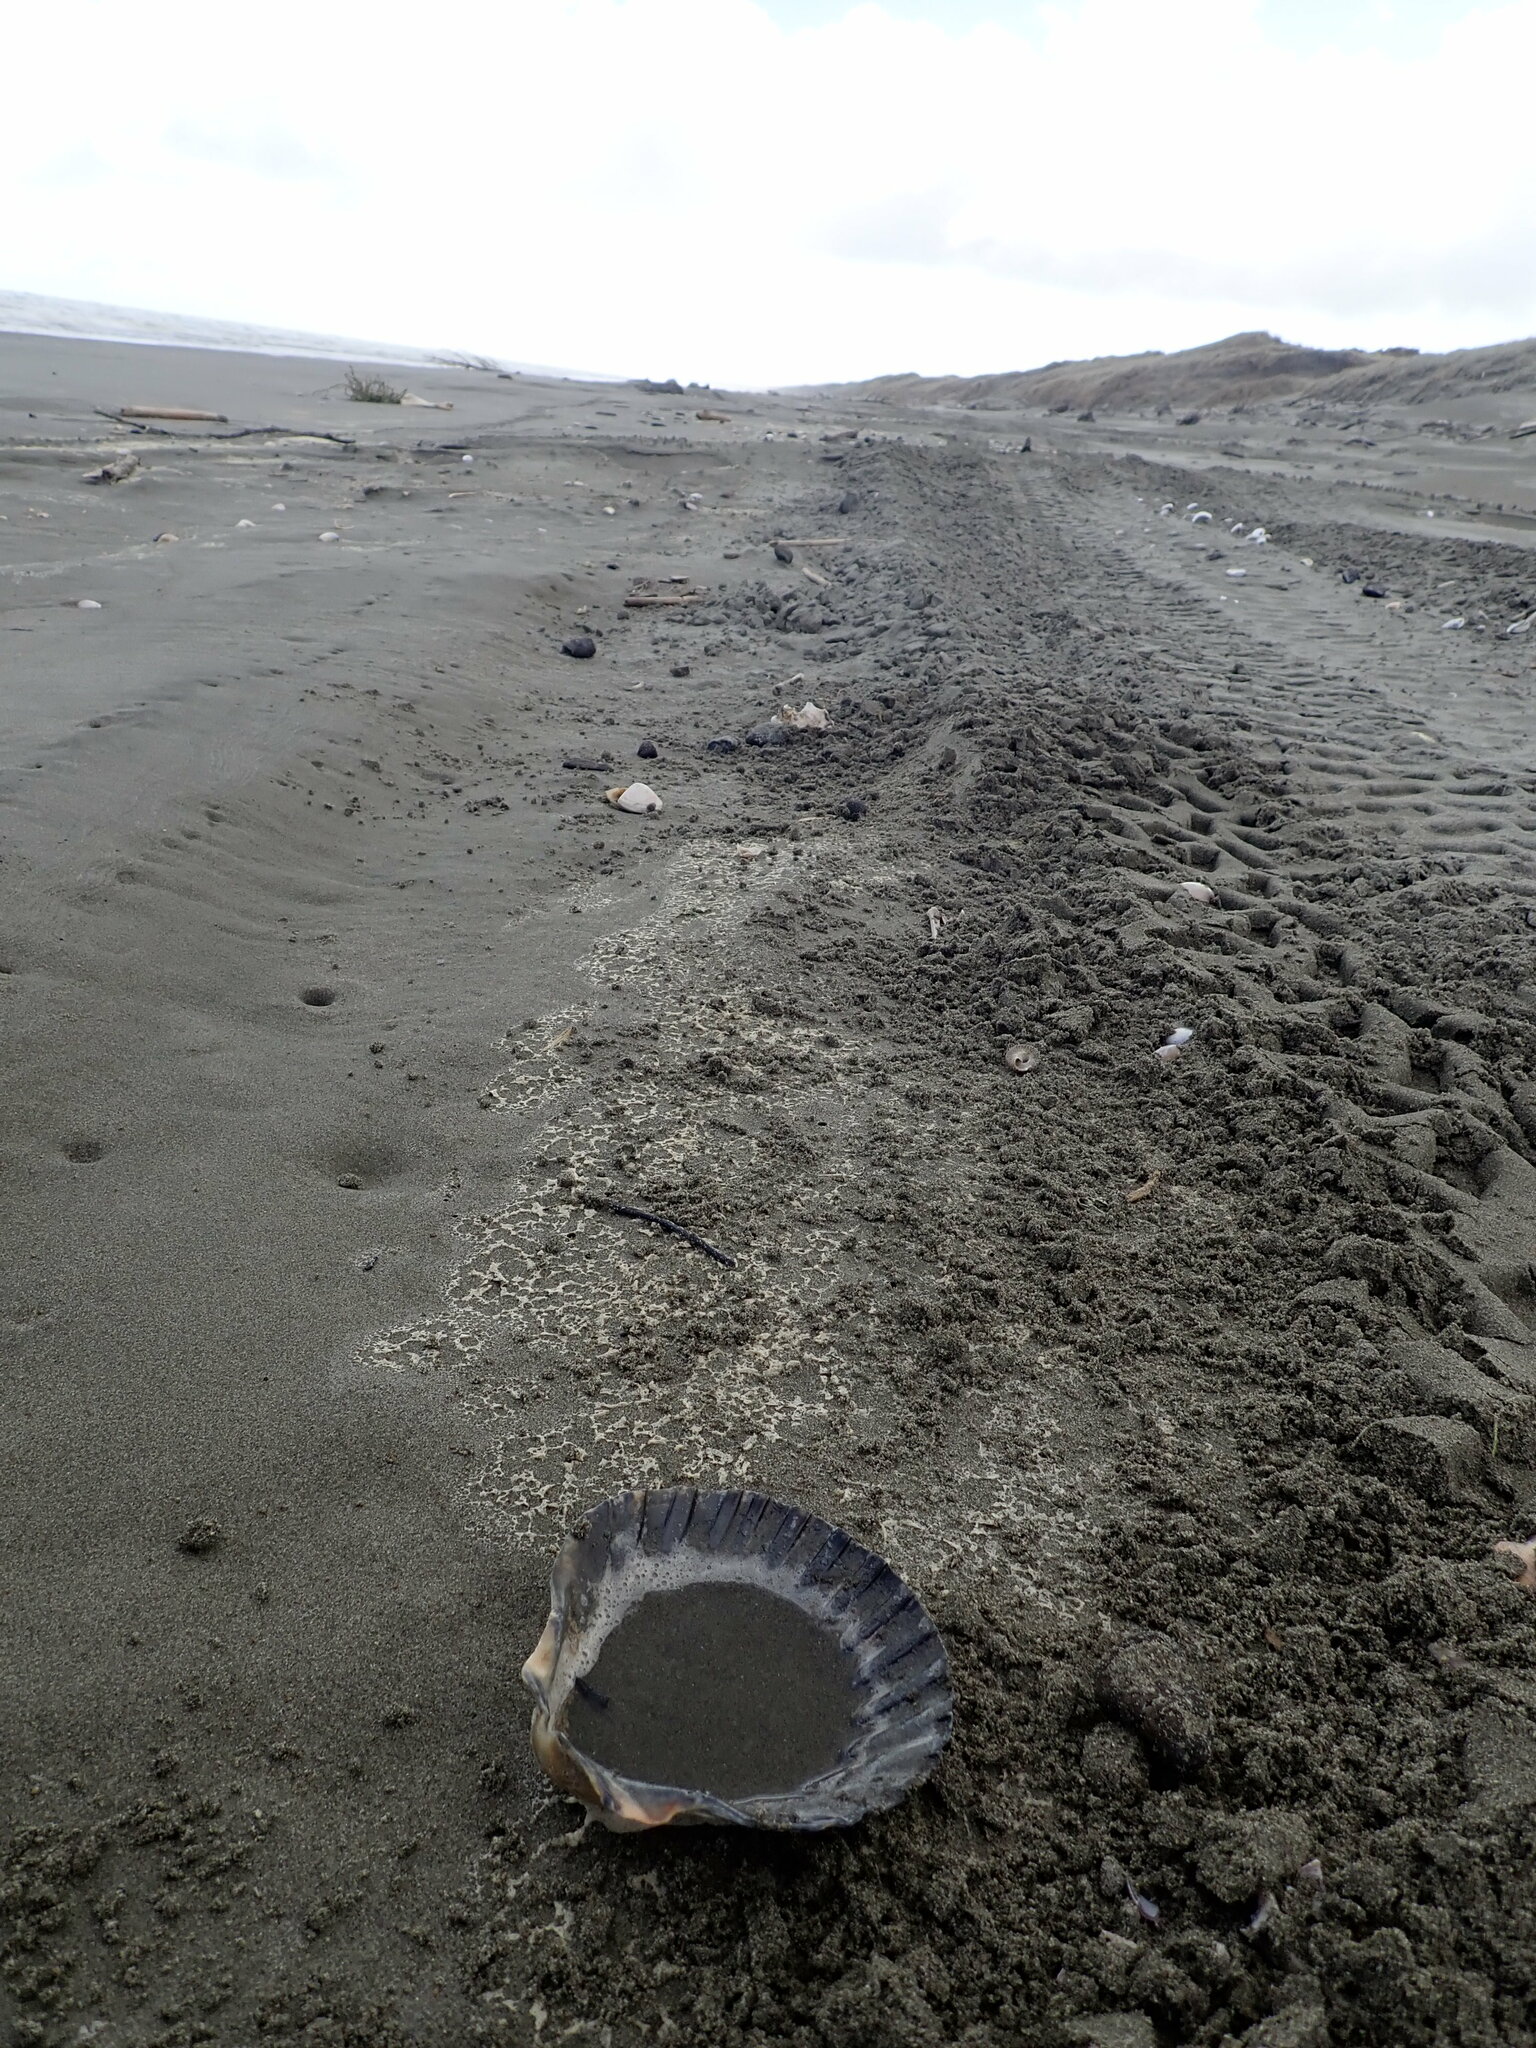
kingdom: Animalia
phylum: Mollusca
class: Bivalvia
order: Pectinida
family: Pectinidae
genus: Pecten
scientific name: Pecten novaezelandiae
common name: New zealand scallop
